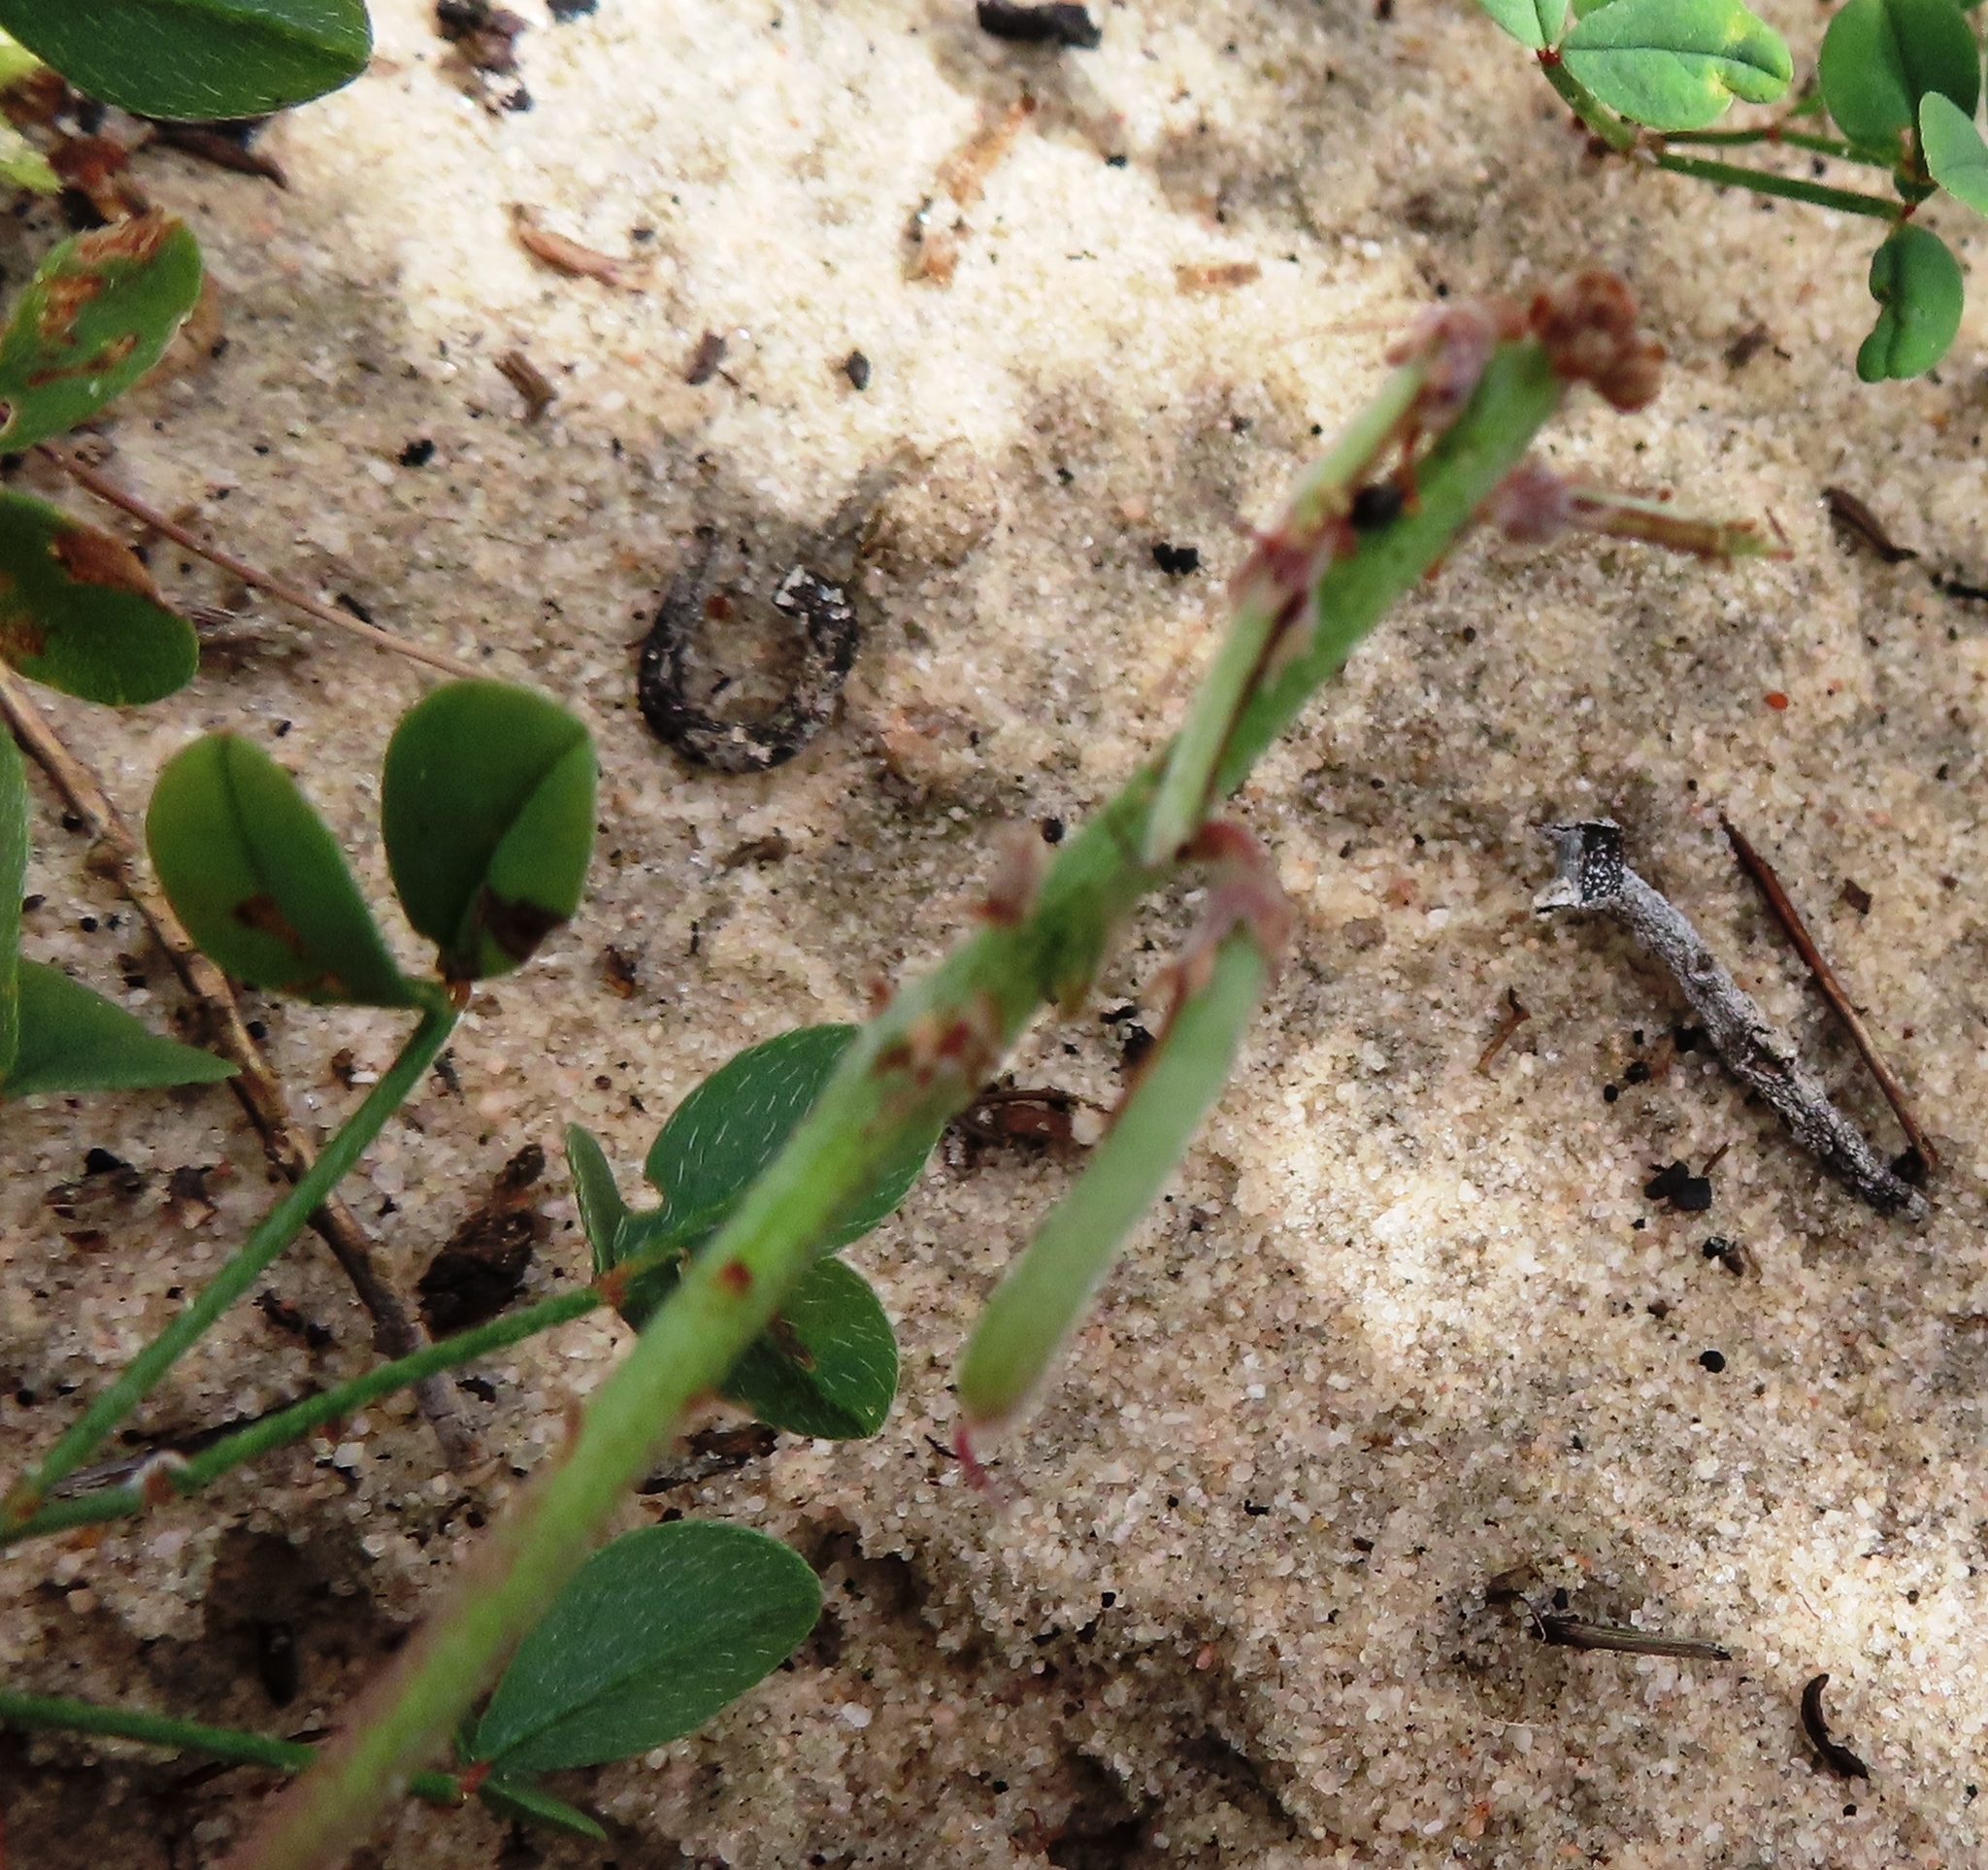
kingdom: Plantae
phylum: Tracheophyta
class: Magnoliopsida
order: Fabales
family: Fabaceae
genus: Indigofera
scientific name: Indigofera procumbens
